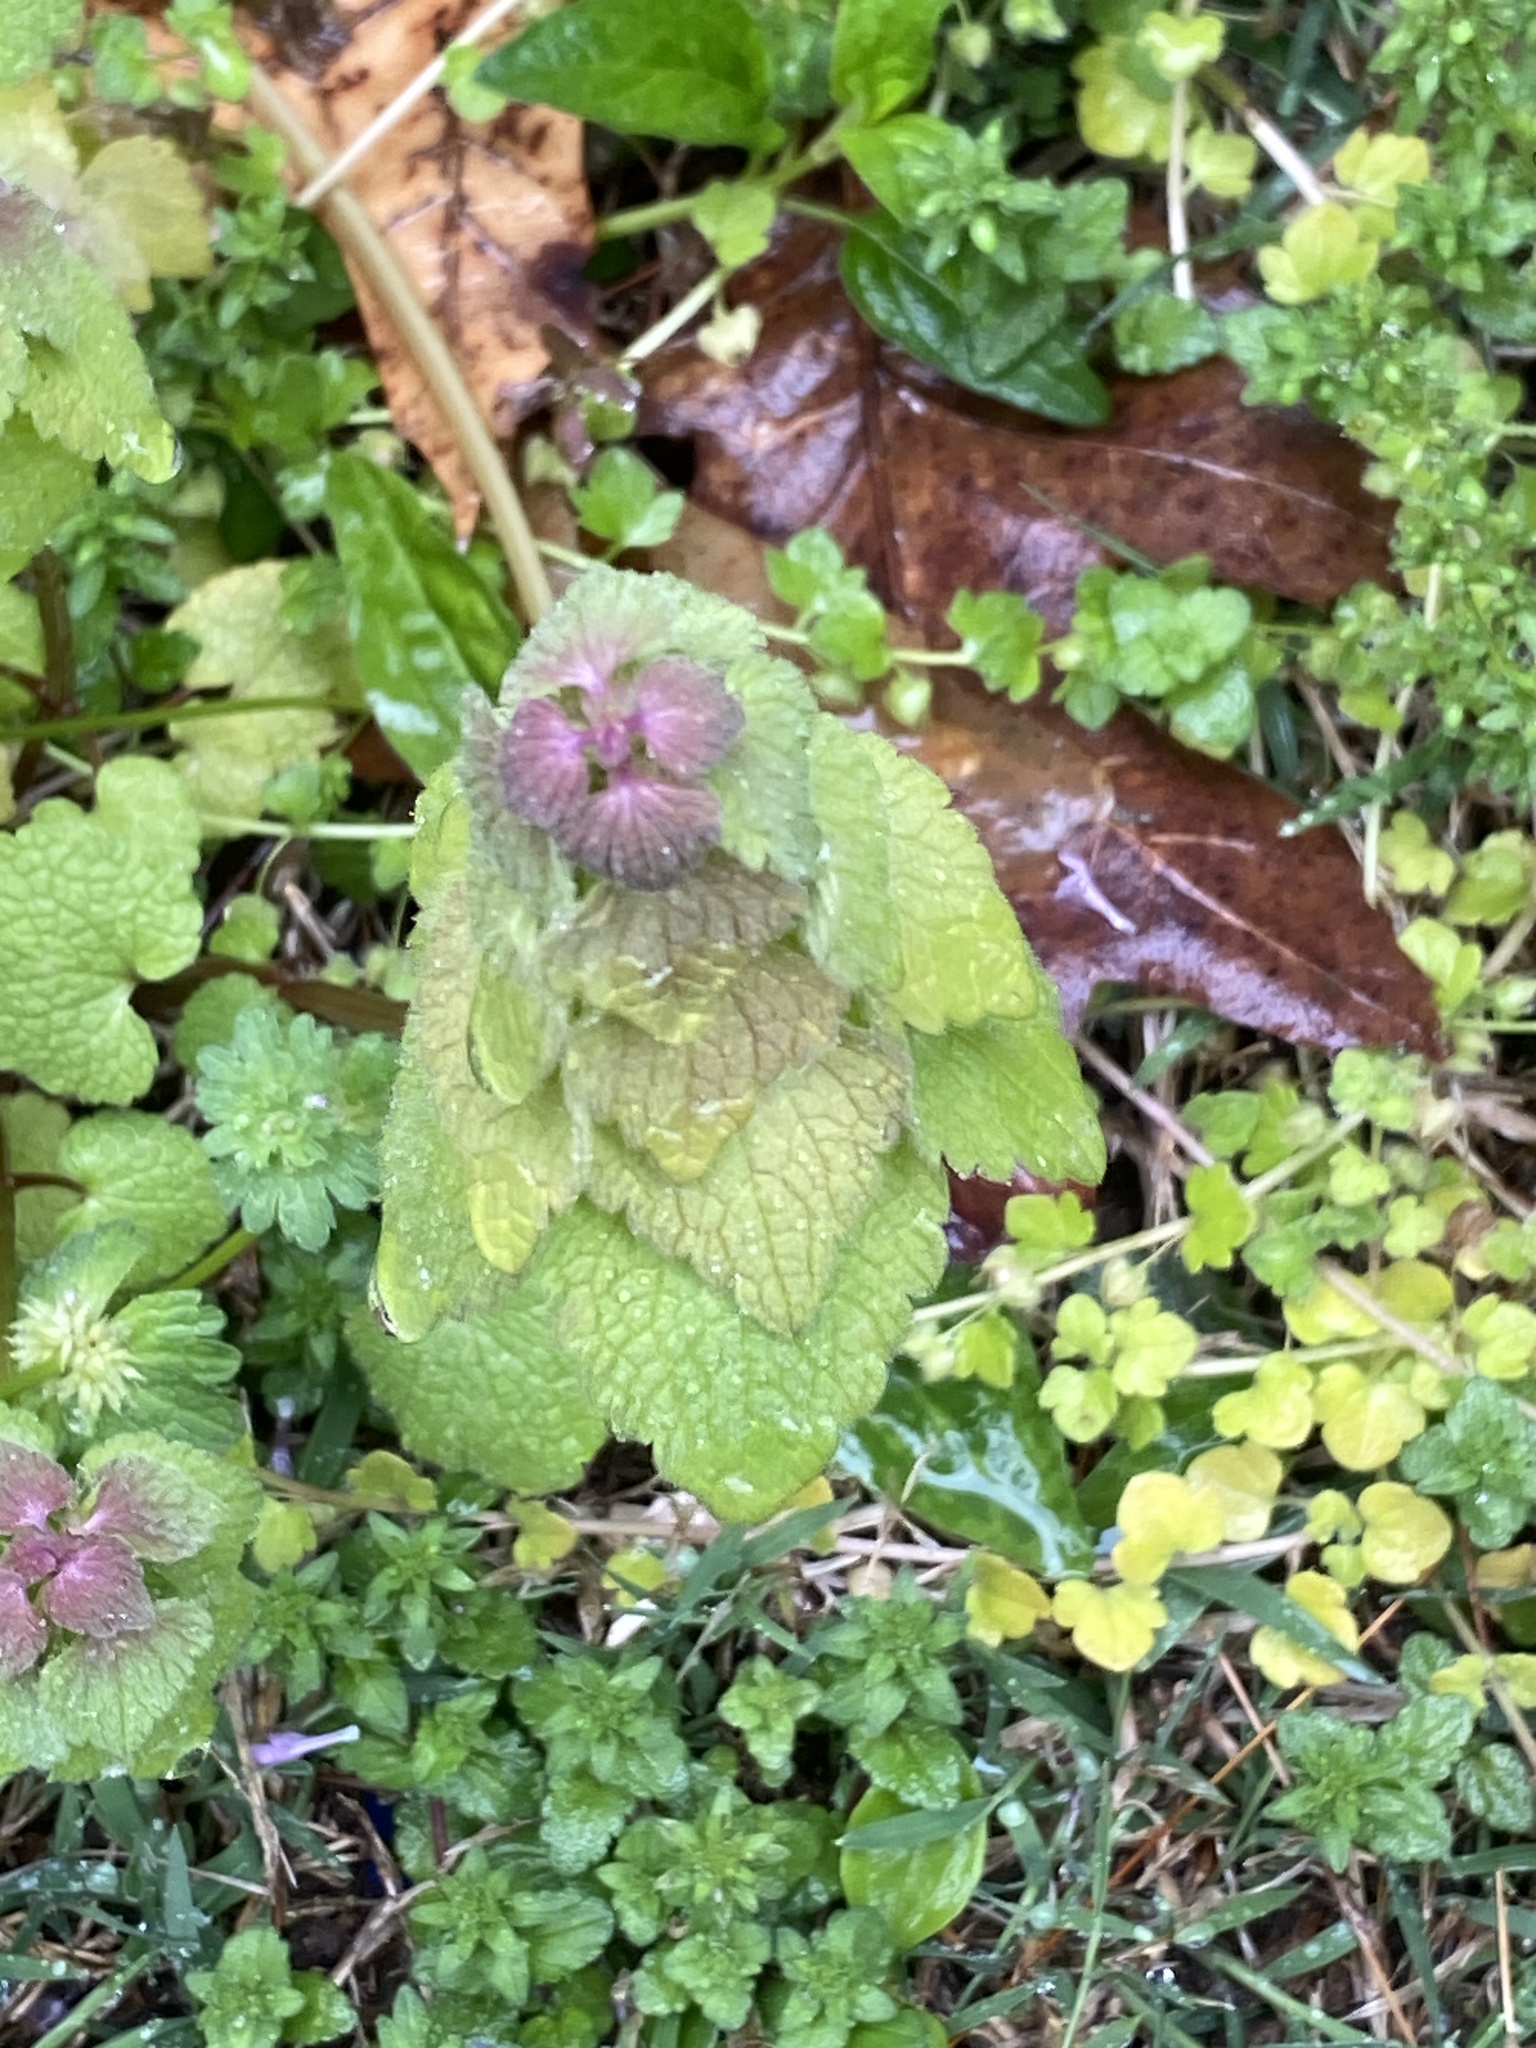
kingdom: Plantae
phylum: Tracheophyta
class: Magnoliopsida
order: Lamiales
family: Lamiaceae
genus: Lamium
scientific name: Lamium purpureum
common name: Red dead-nettle
